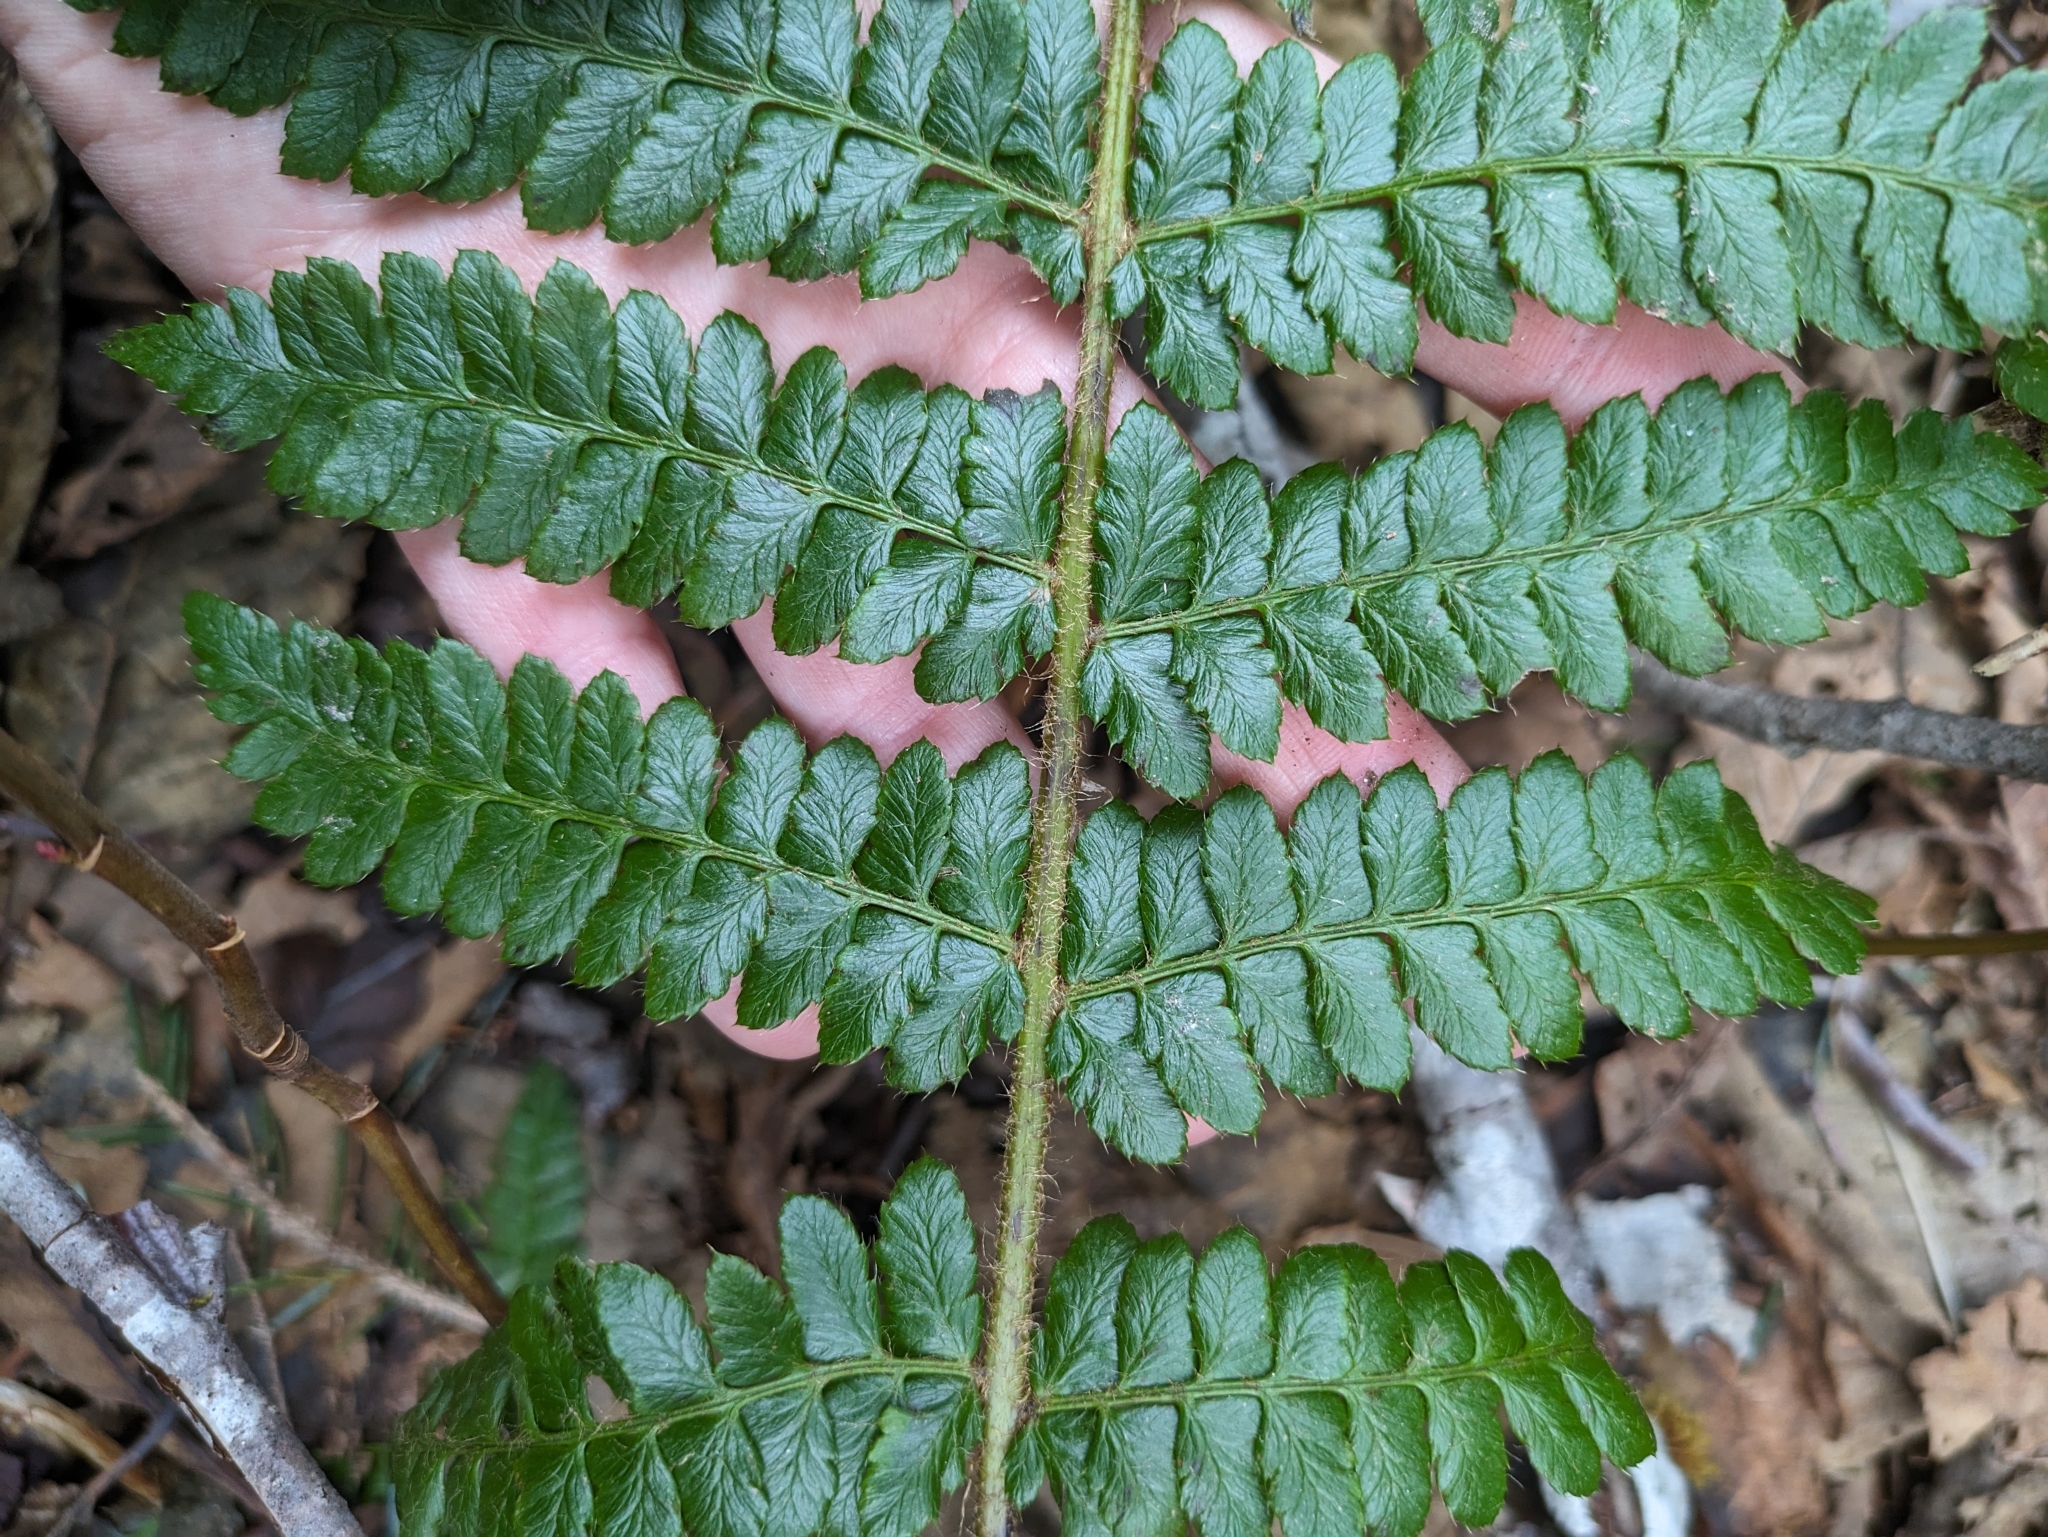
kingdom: Plantae
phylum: Tracheophyta
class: Polypodiopsida
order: Polypodiales
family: Dryopteridaceae
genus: Polystichum
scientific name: Polystichum braunii
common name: Braun's holly fern
